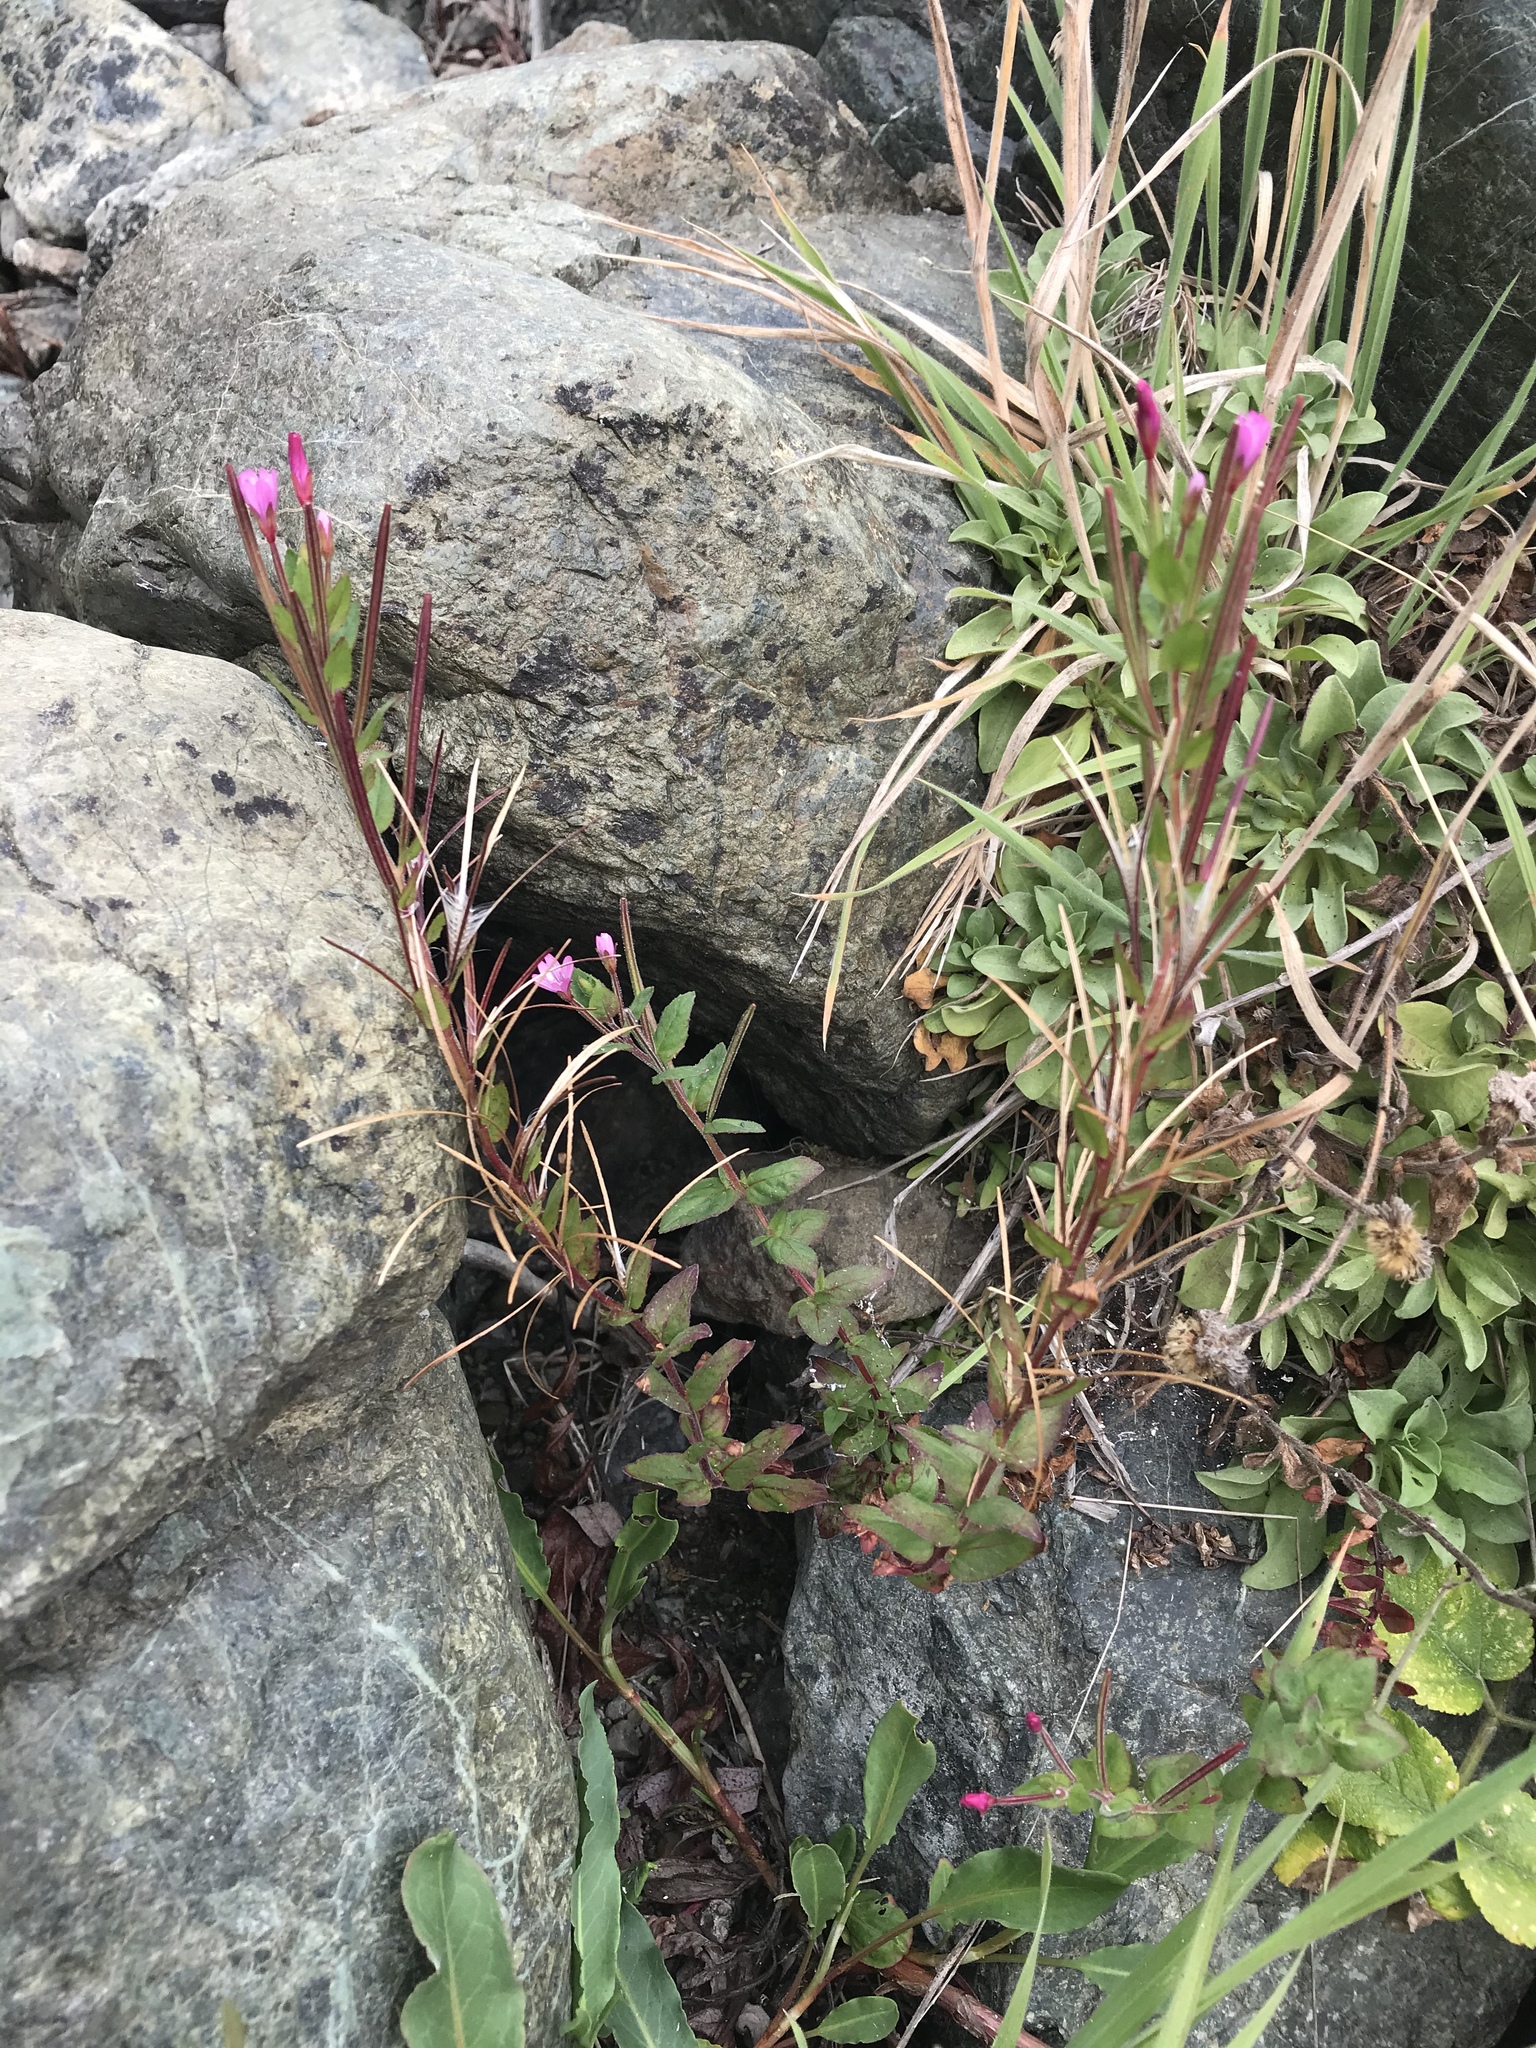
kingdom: Plantae
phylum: Tracheophyta
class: Magnoliopsida
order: Myrtales
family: Onagraceae
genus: Epilobium
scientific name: Epilobium ciliatum
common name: American willowherb
